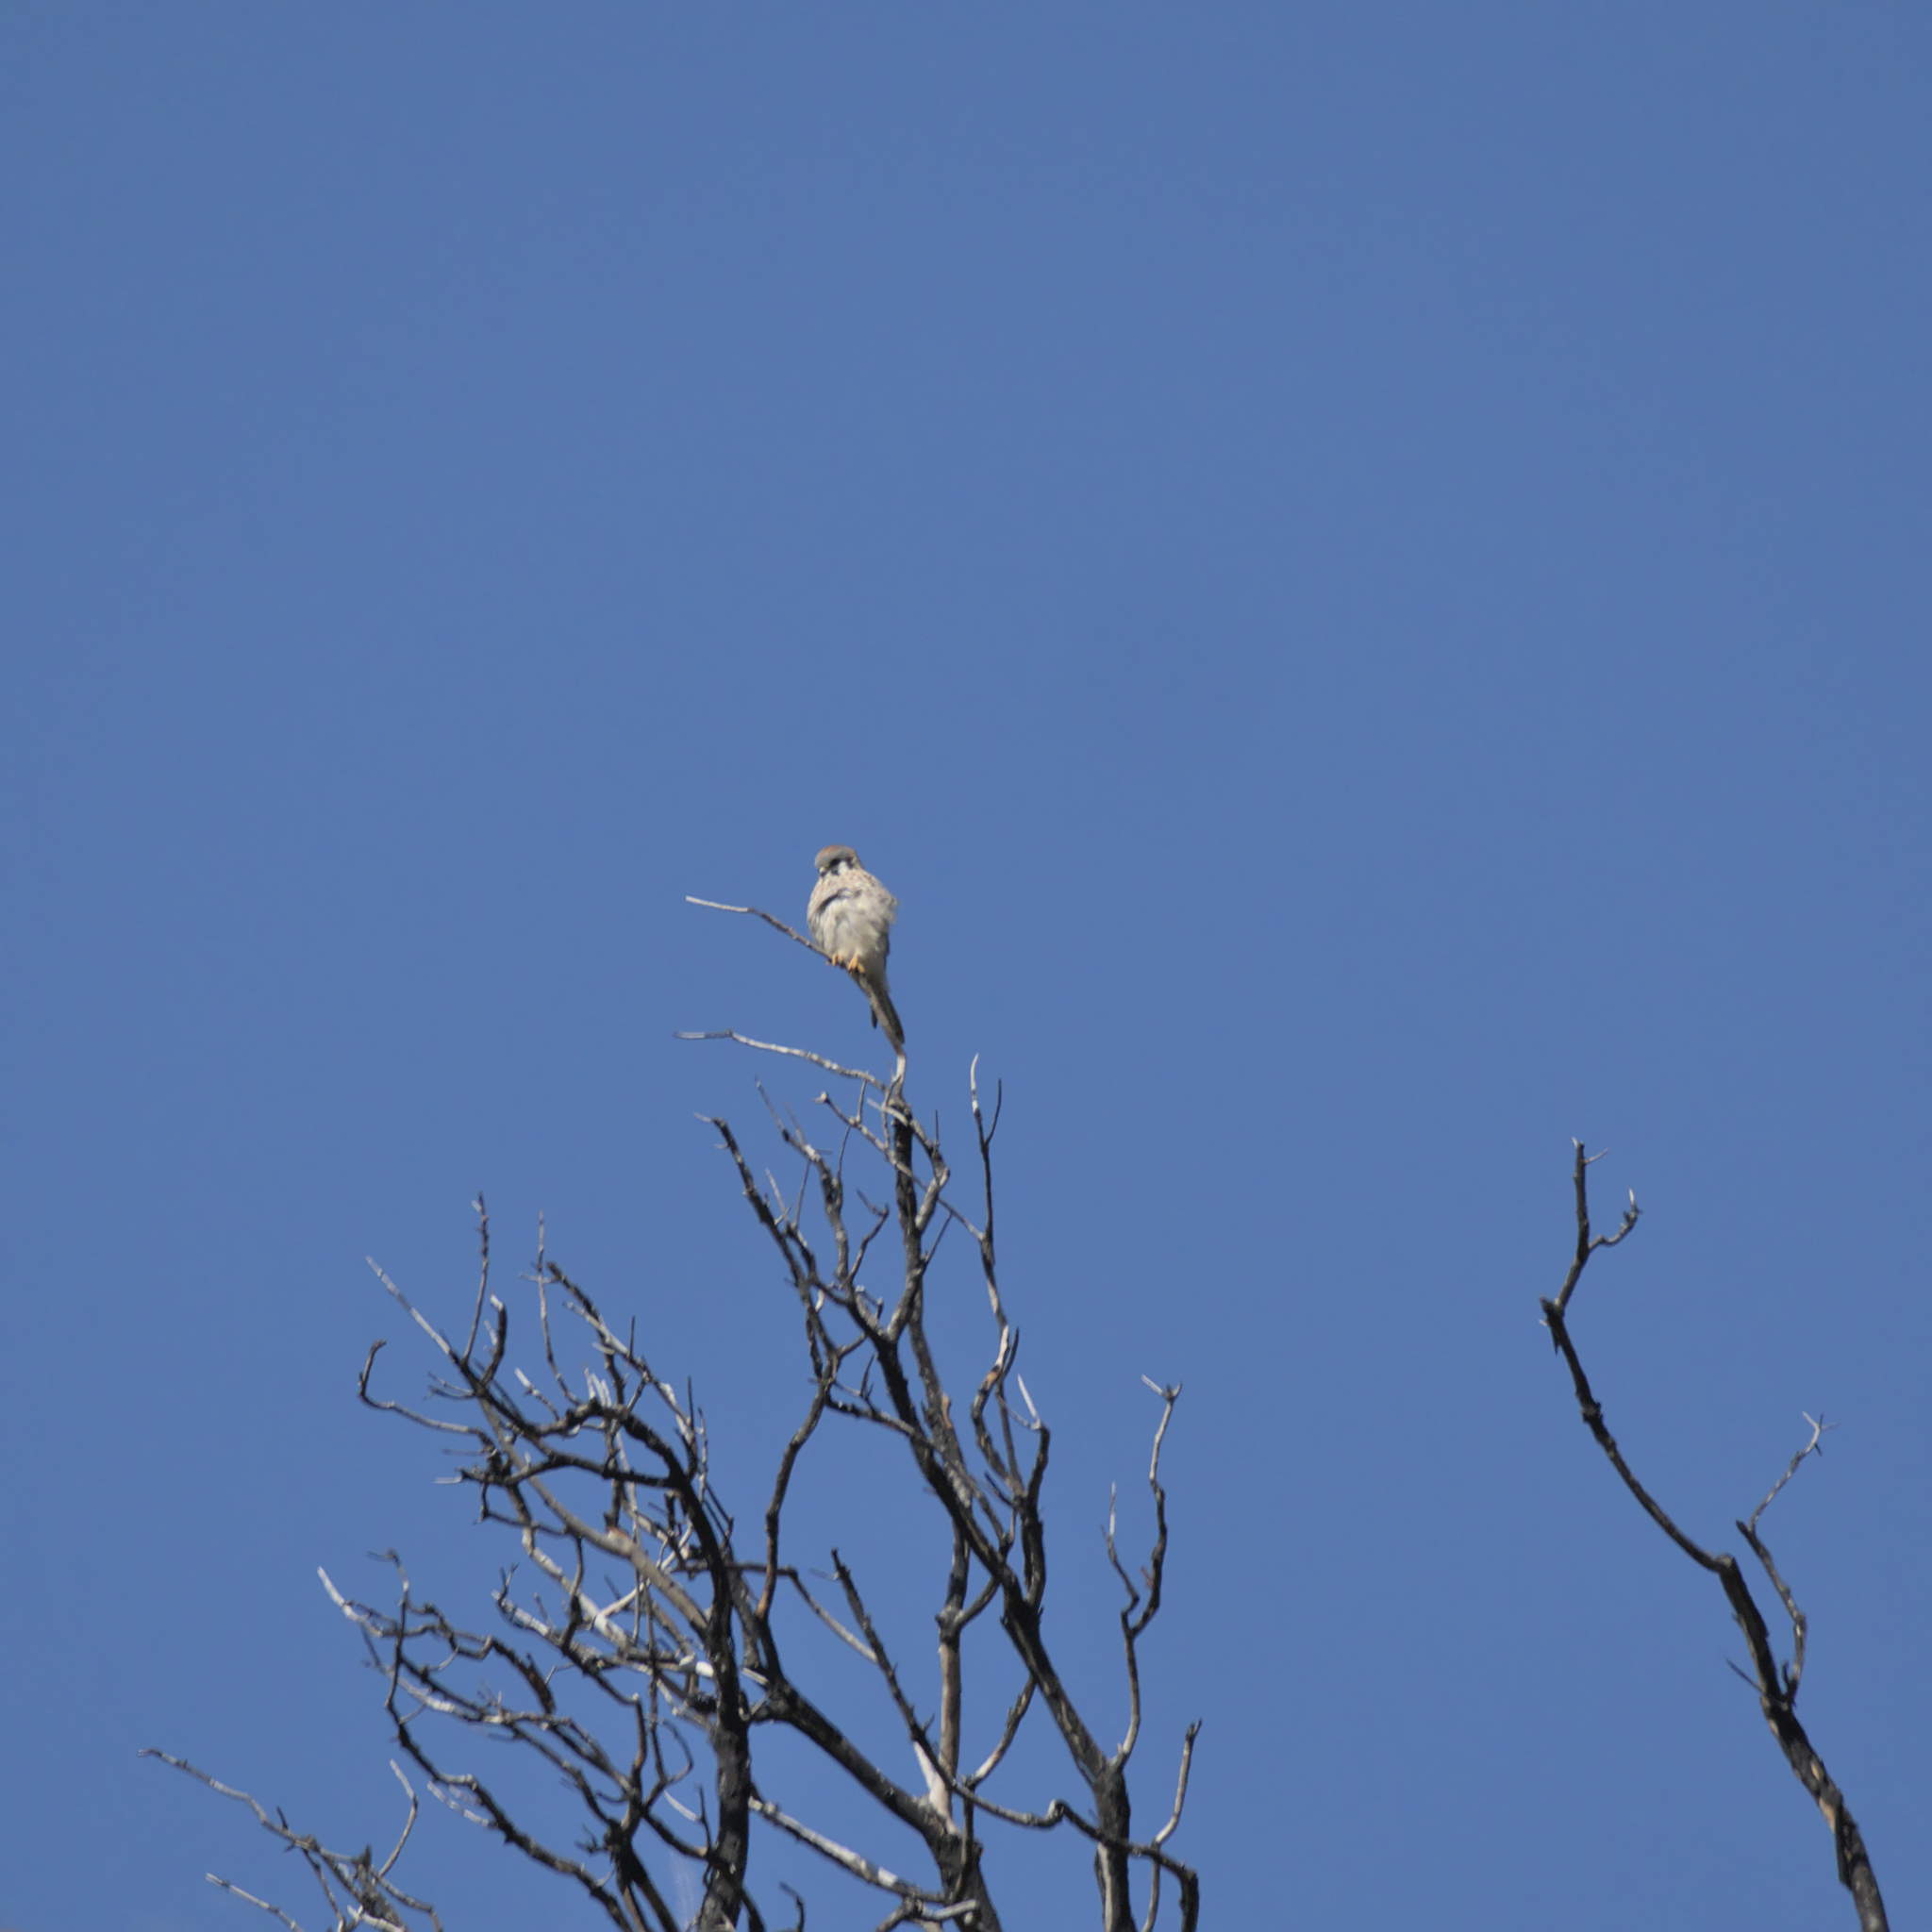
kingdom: Animalia
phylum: Chordata
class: Aves
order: Falconiformes
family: Falconidae
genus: Falco
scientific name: Falco sparverius
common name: American kestrel
